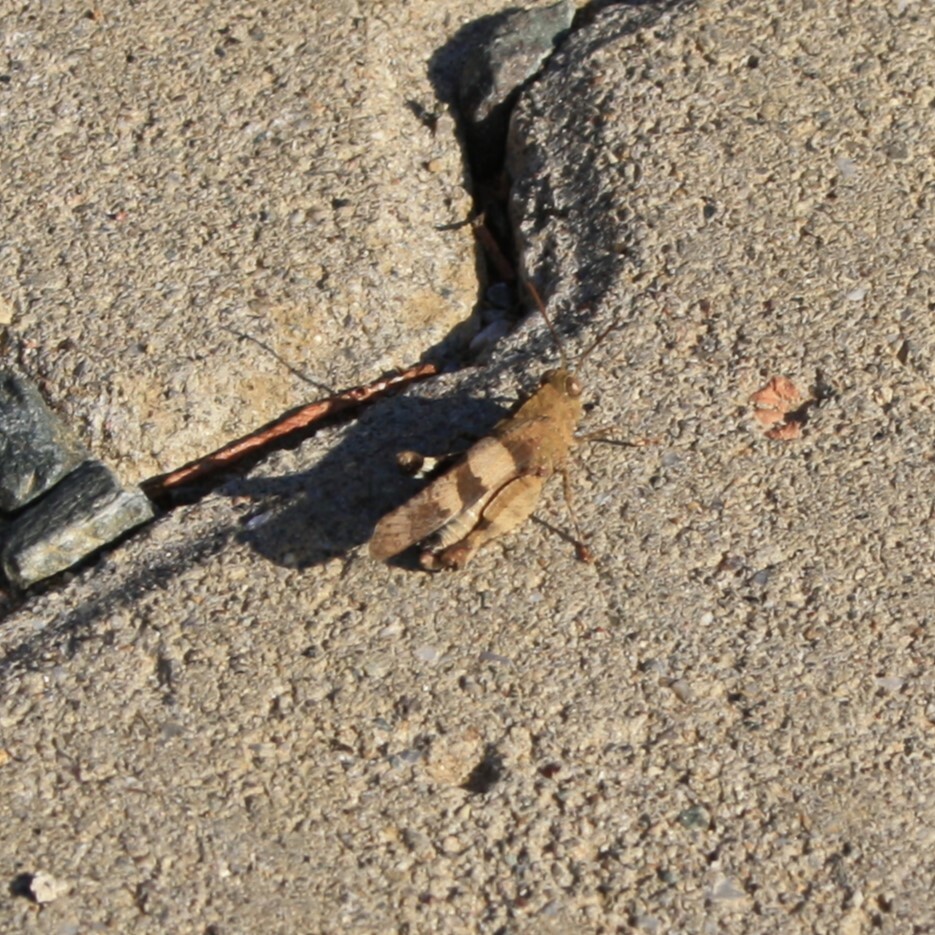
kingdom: Animalia
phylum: Arthropoda
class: Insecta
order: Orthoptera
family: Acrididae
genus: Oedipoda
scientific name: Oedipoda caerulescens
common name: Blue-winged grasshopper
